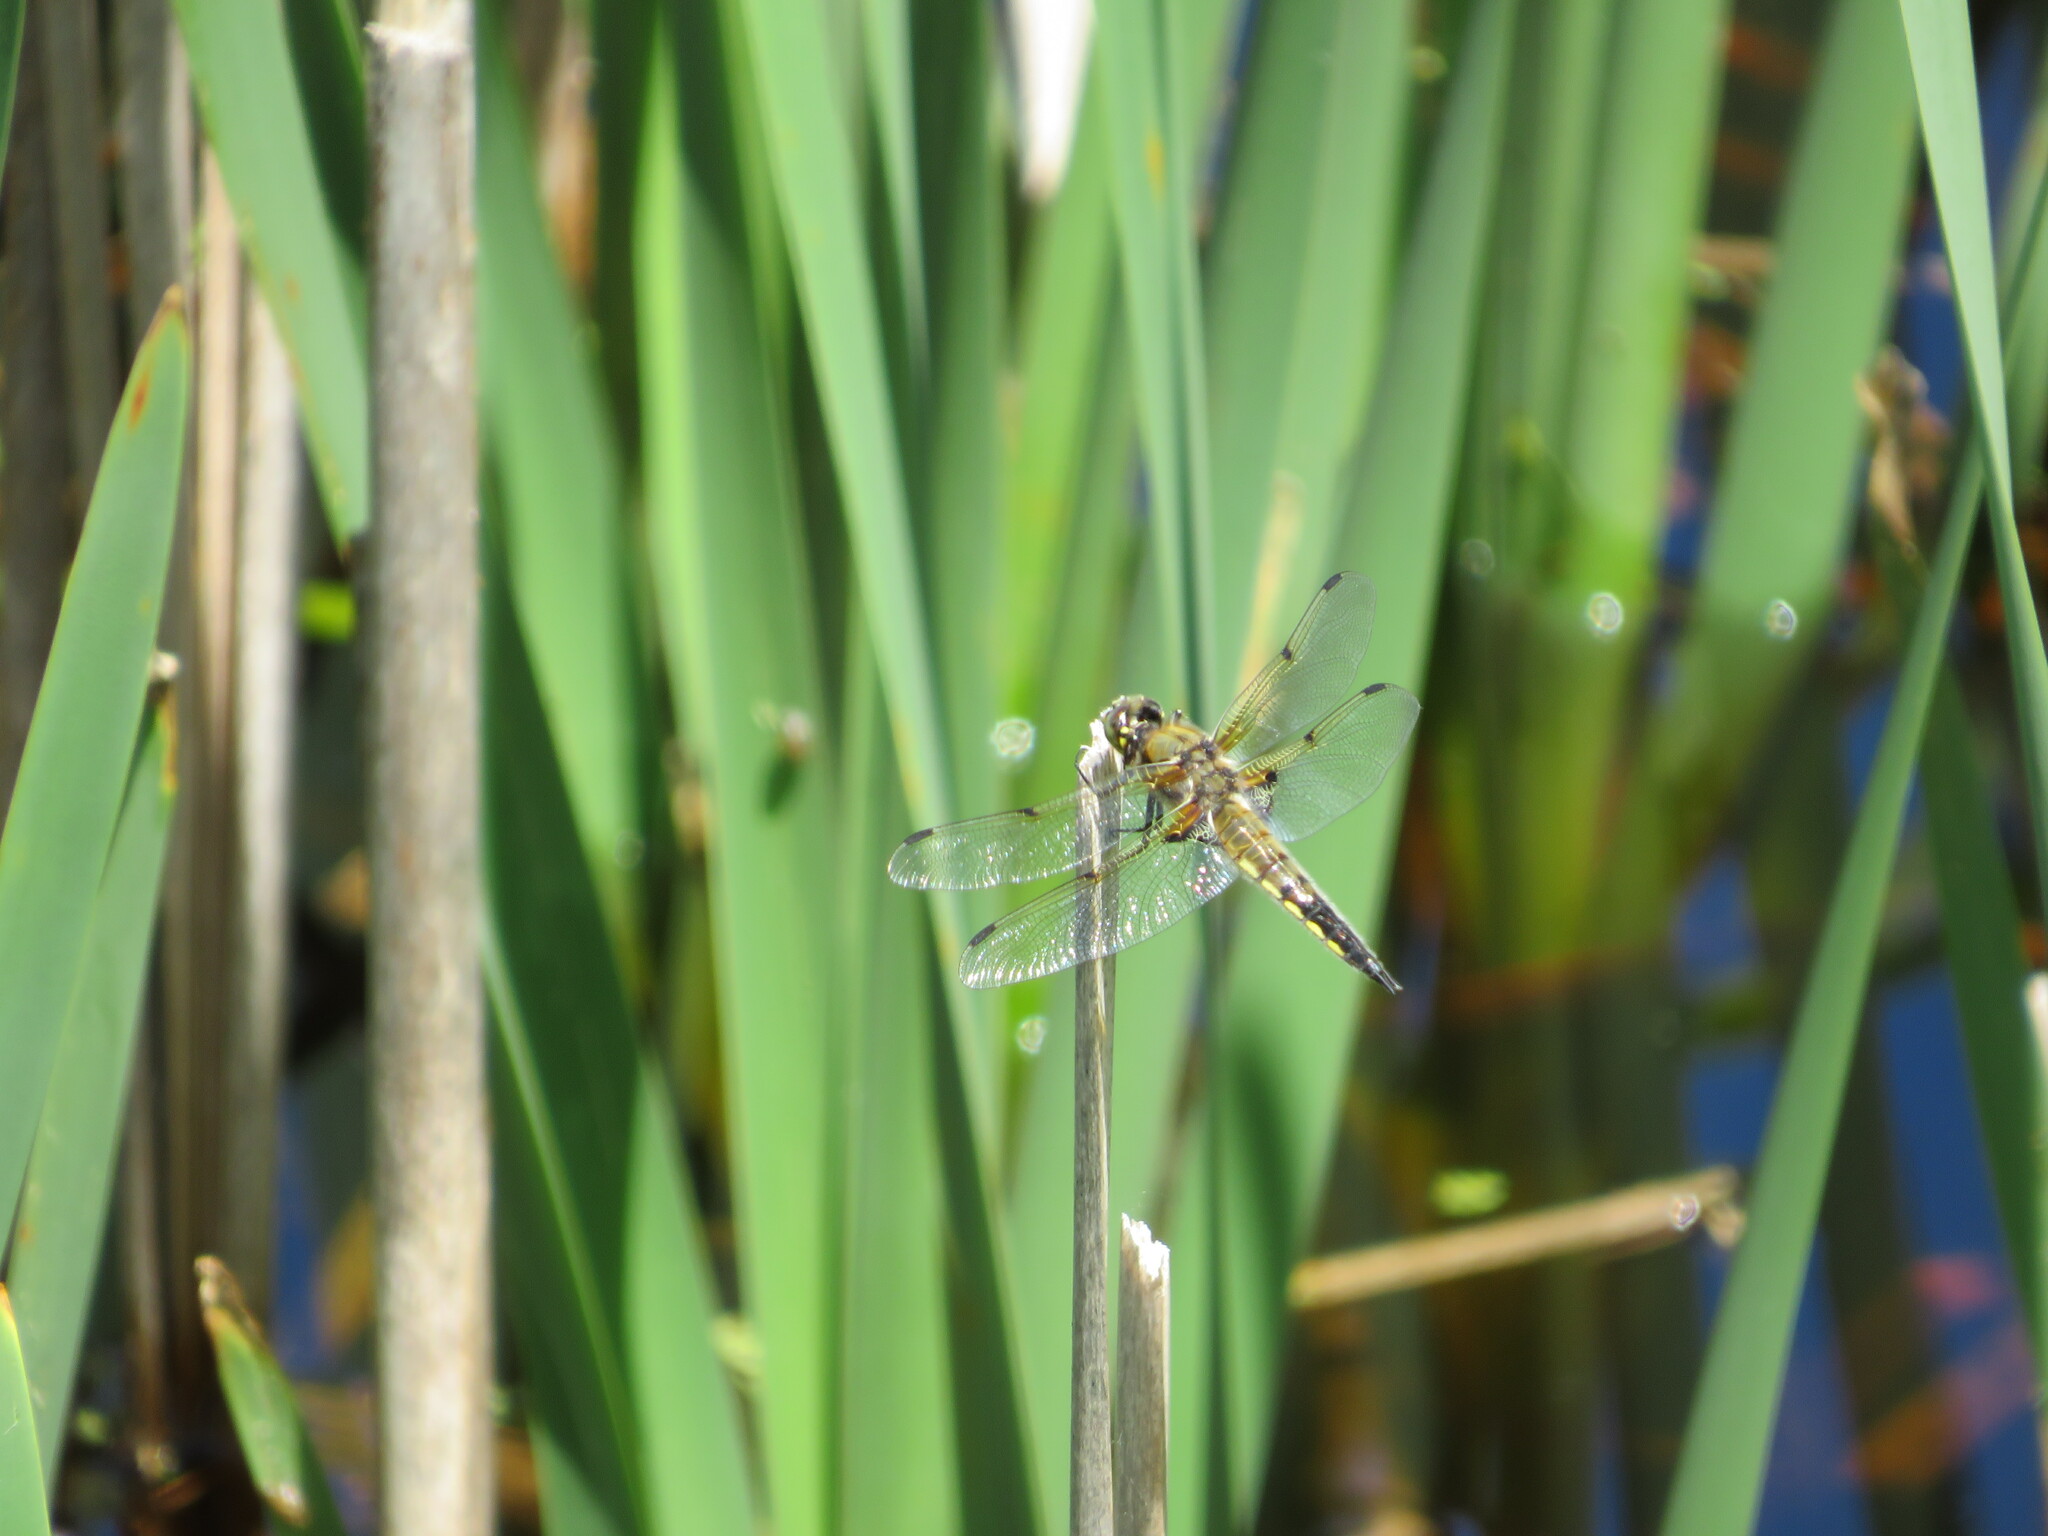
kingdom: Animalia
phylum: Arthropoda
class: Insecta
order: Odonata
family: Libellulidae
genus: Libellula
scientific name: Libellula quadrimaculata
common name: Four-spotted chaser
